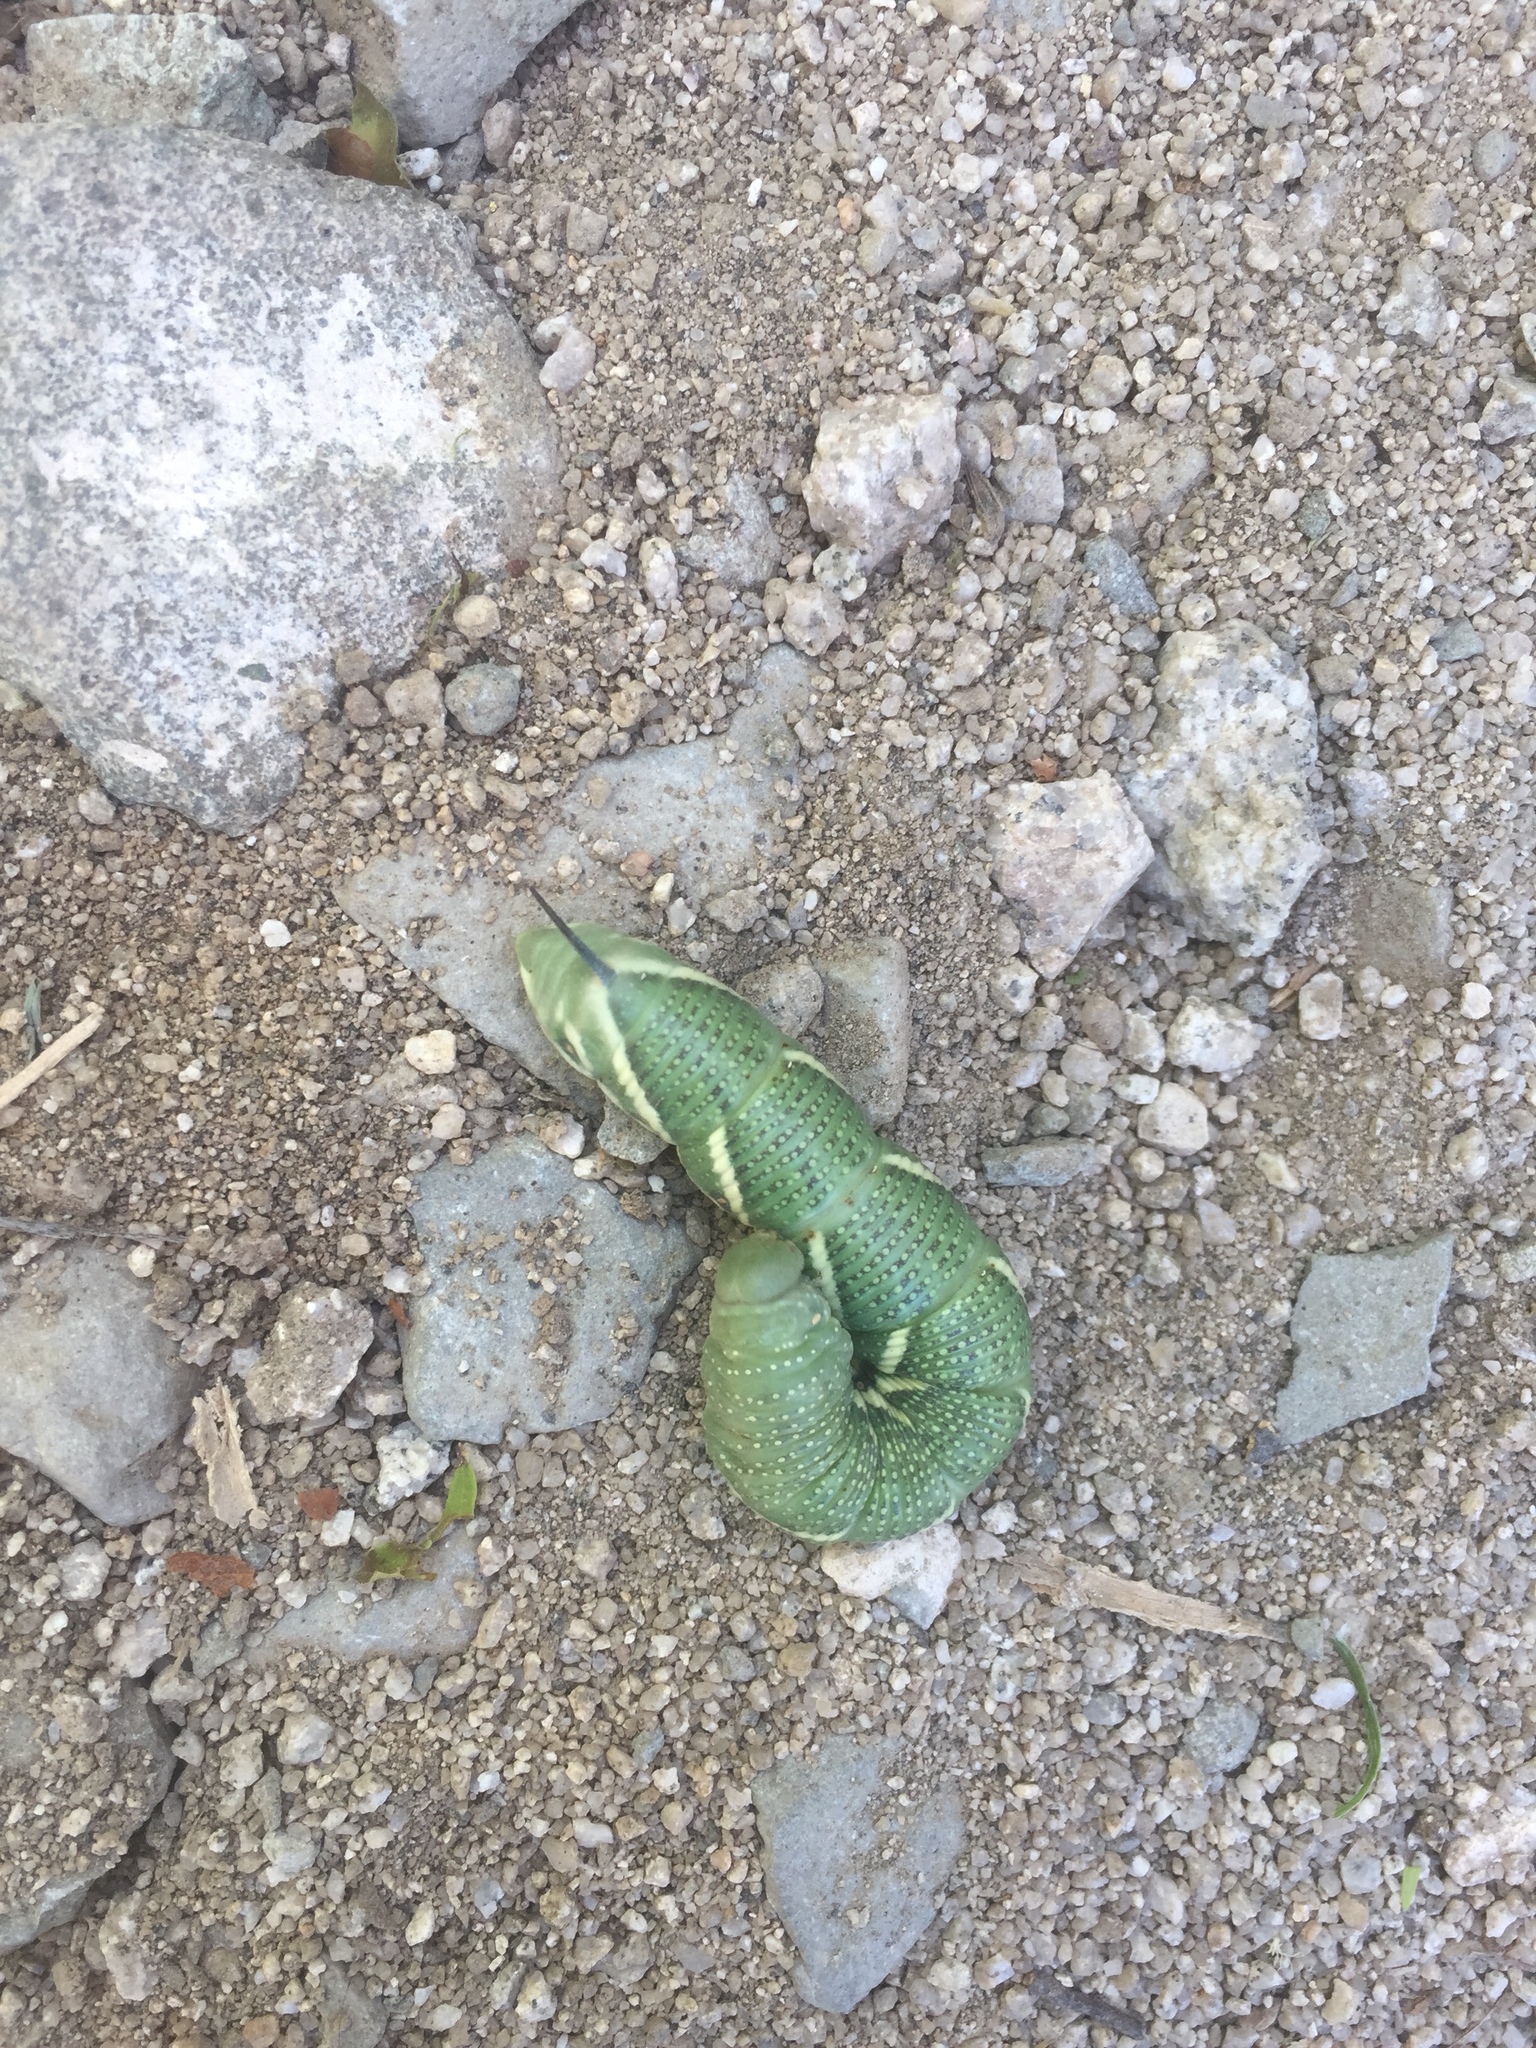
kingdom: Animalia
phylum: Arthropoda
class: Insecta
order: Lepidoptera
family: Sphingidae
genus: Manduca
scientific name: Manduca quinquemaculatus
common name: Five-spotted hawk-moth
